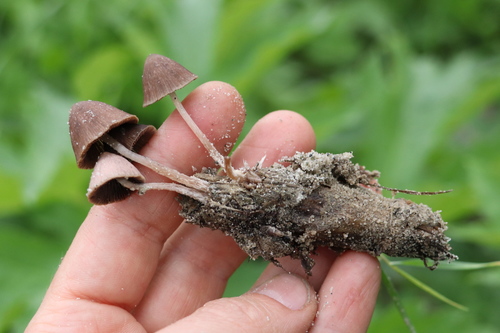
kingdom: Fungi
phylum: Basidiomycota
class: Agaricomycetes
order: Agaricales
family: Psathyrellaceae
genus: Psathyrella
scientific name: Psathyrella
